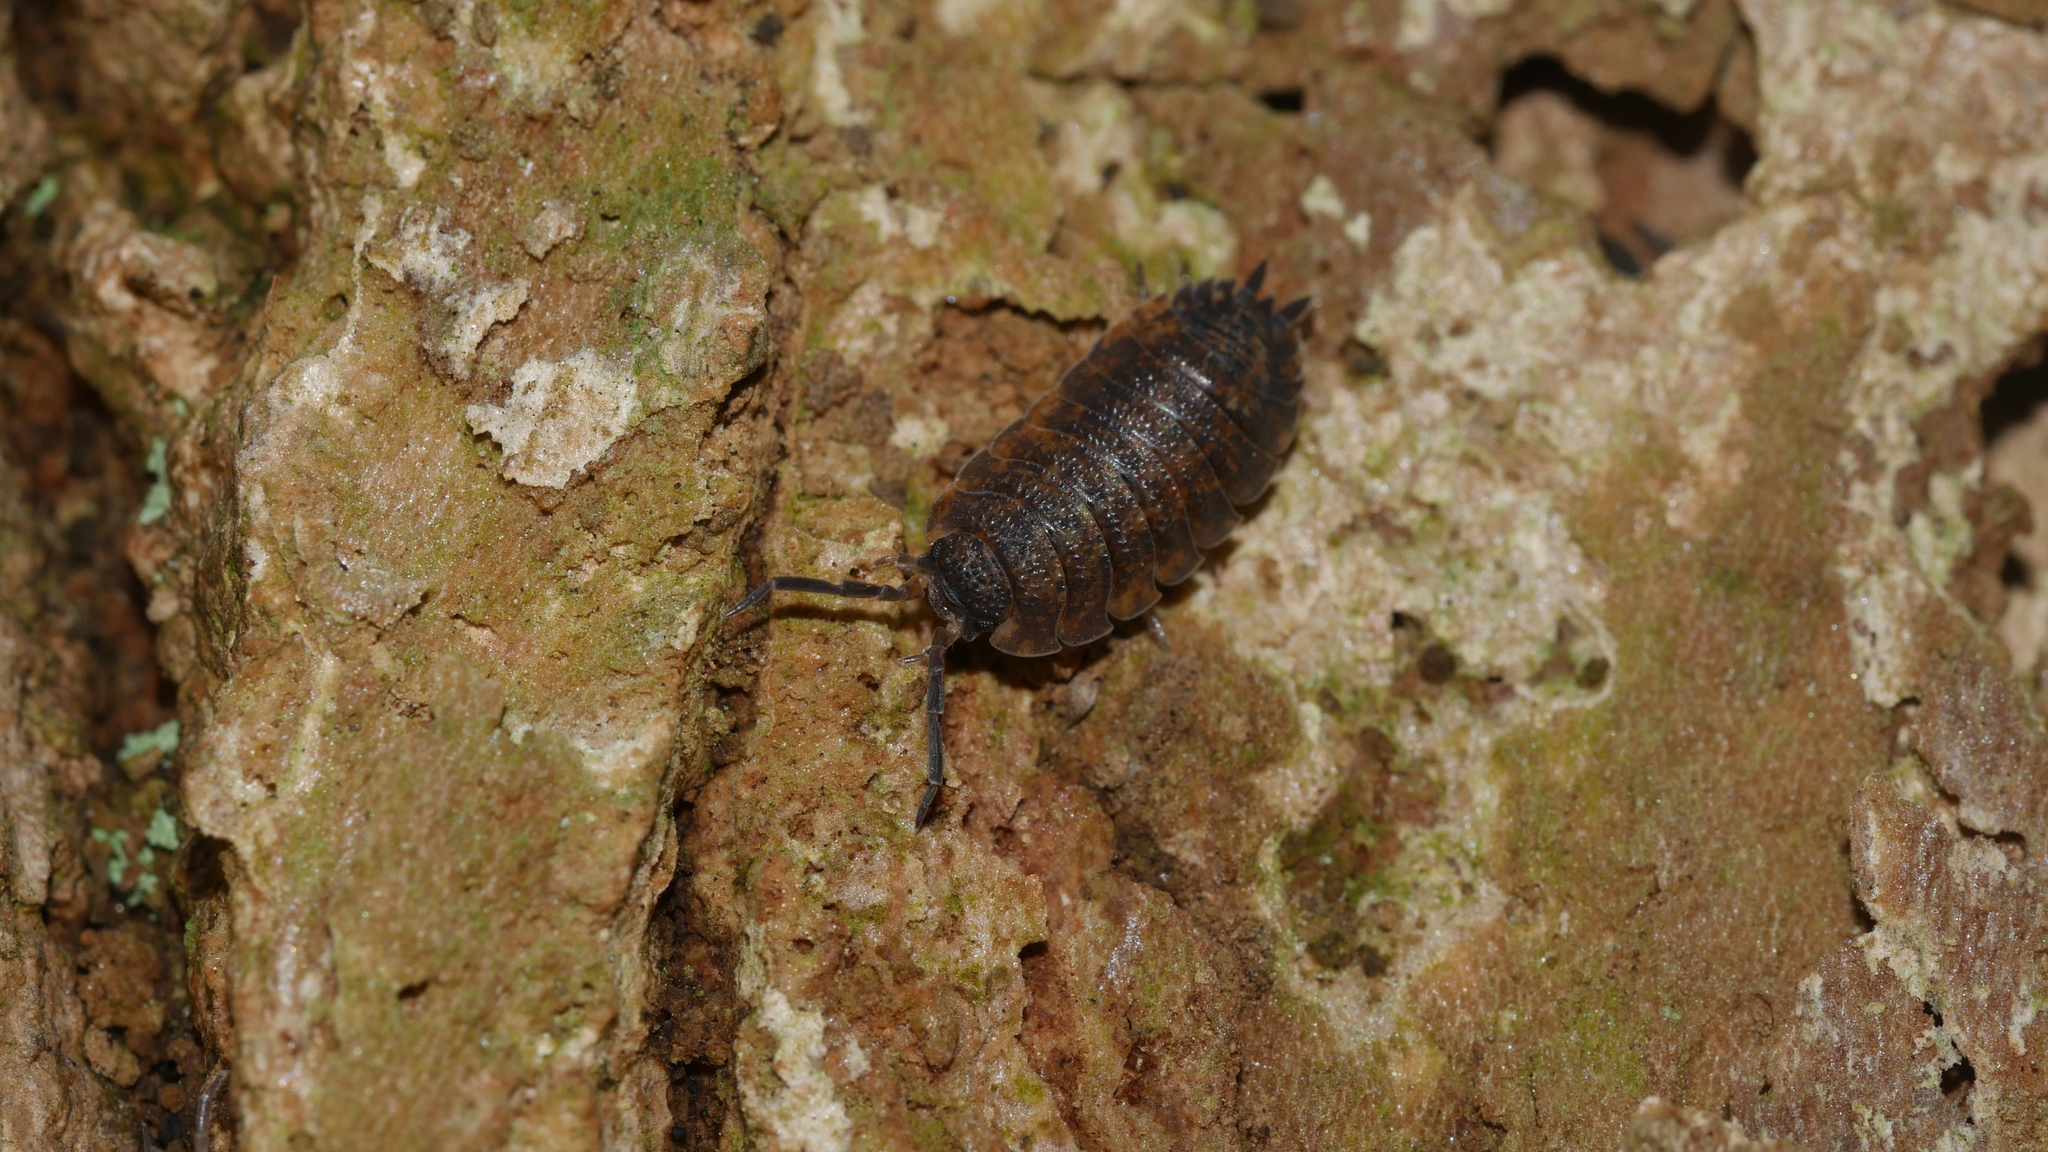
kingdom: Animalia
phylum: Arthropoda
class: Malacostraca
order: Isopoda
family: Porcellionidae
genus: Porcellio
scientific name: Porcellio scaber
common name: Common rough woodlouse
